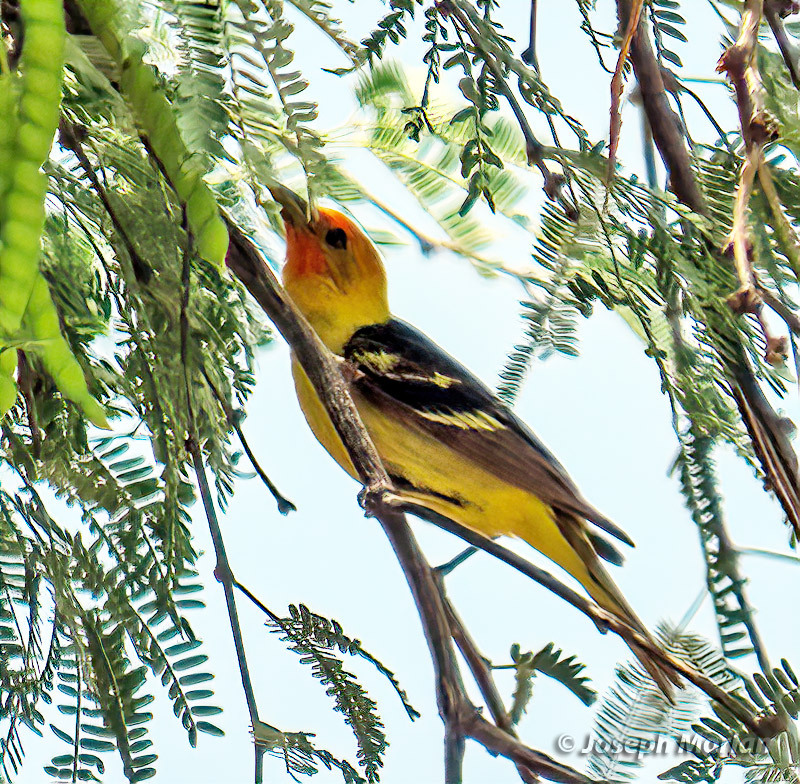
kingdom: Animalia
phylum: Chordata
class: Aves
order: Passeriformes
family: Cardinalidae
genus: Piranga
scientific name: Piranga ludoviciana
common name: Western tanager
